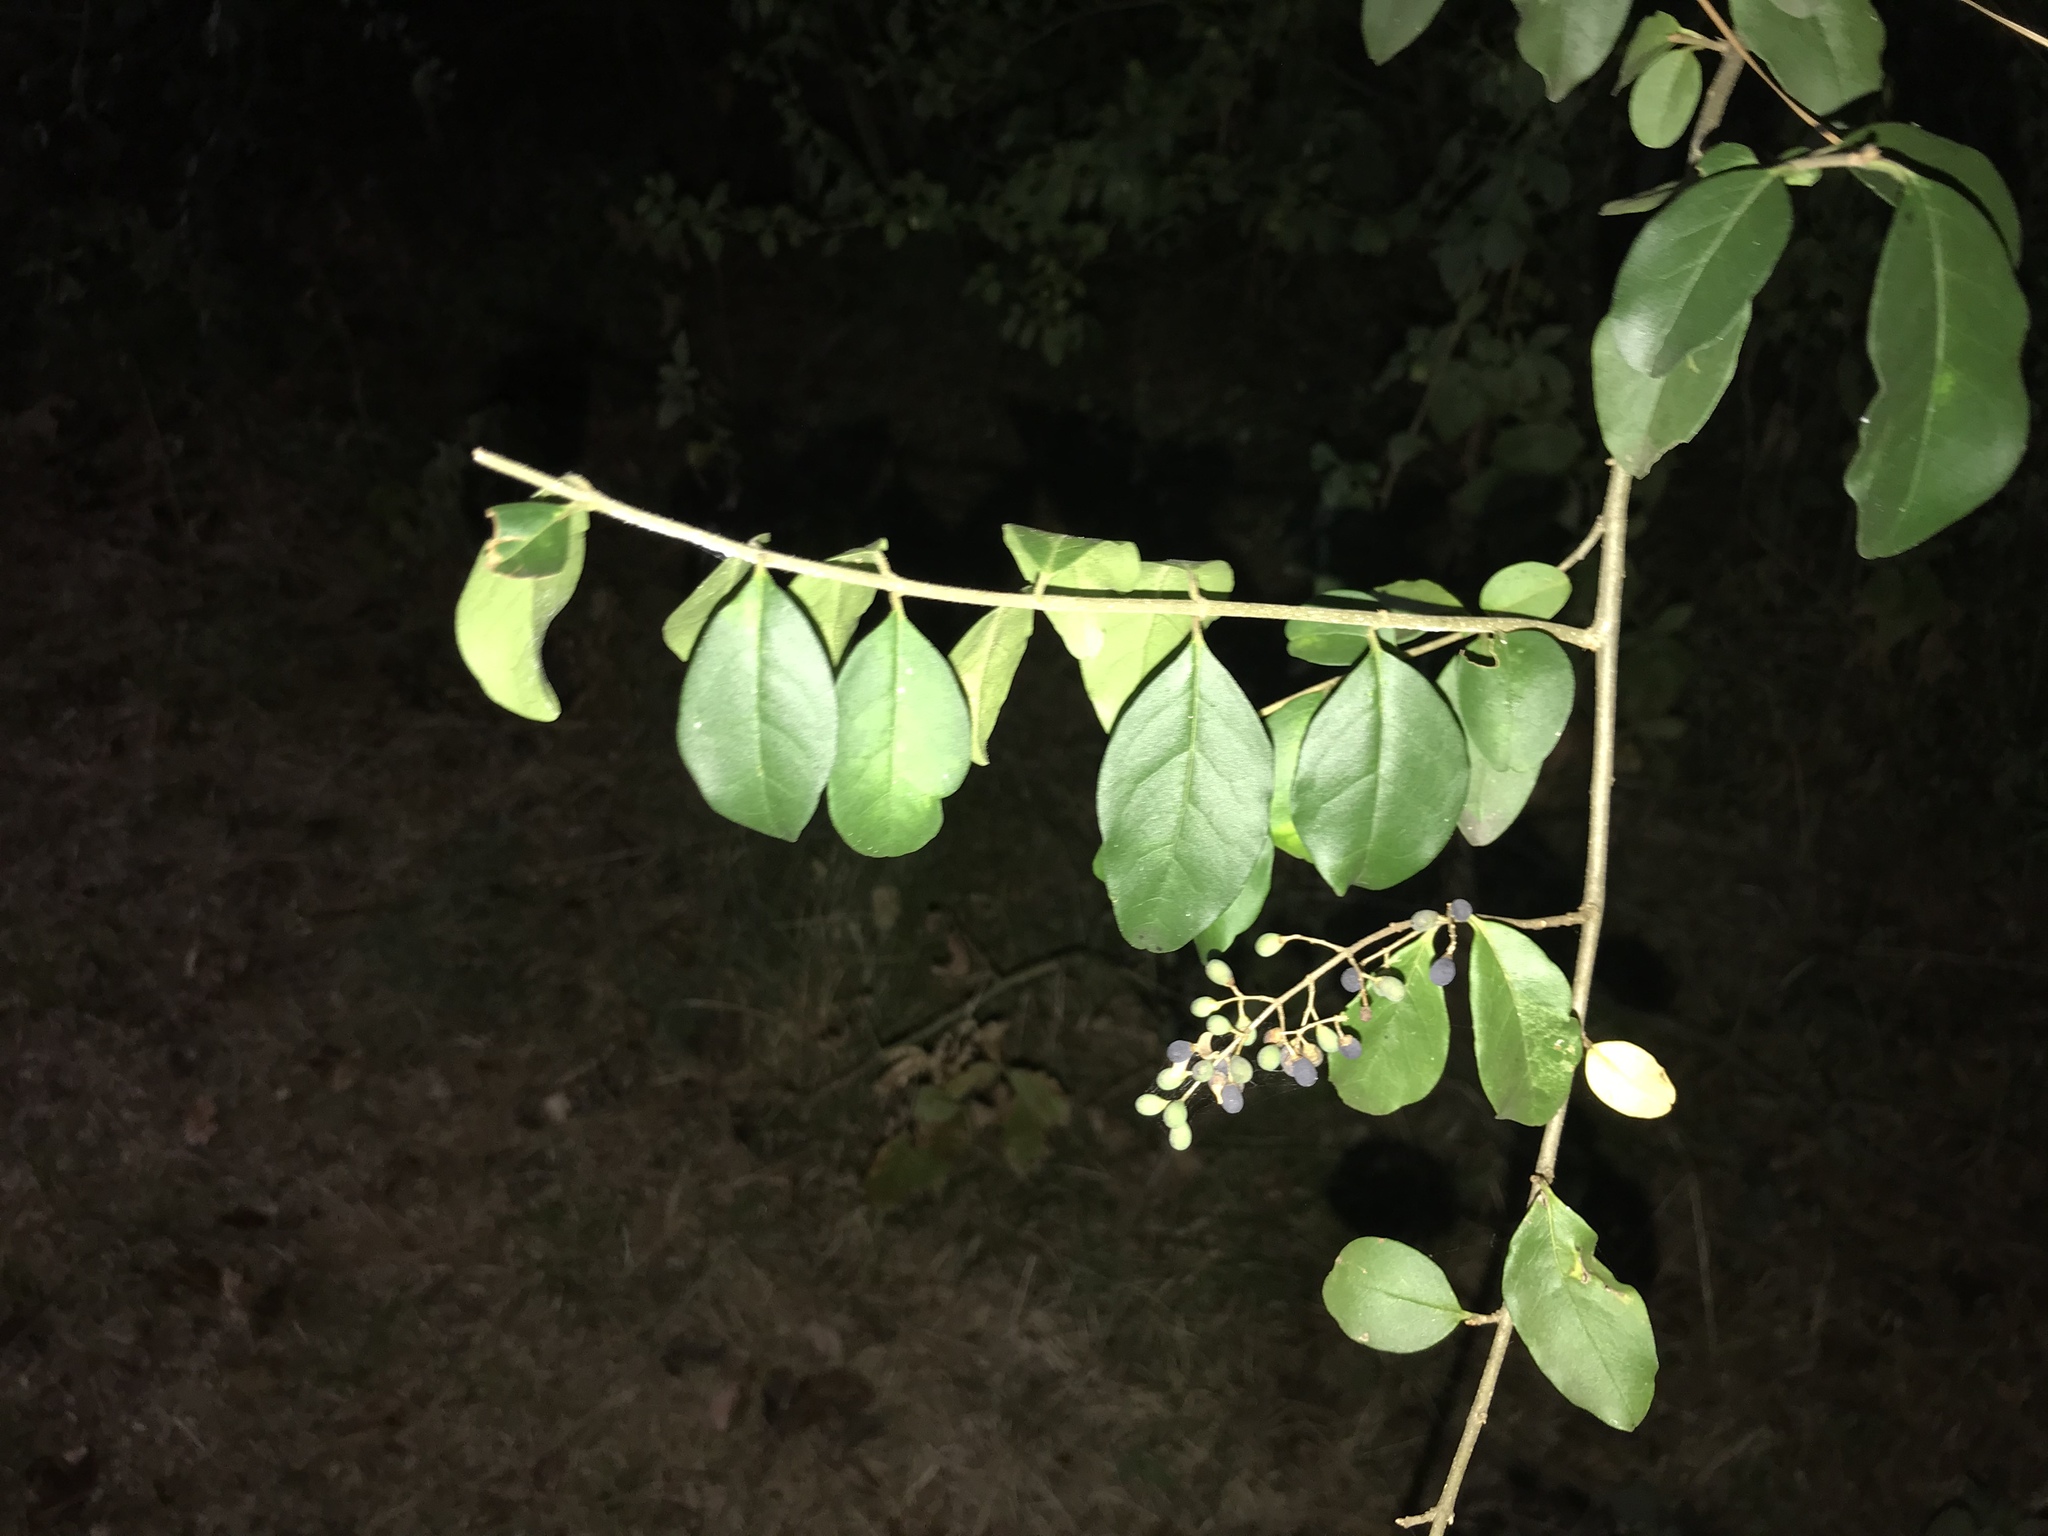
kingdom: Plantae
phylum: Tracheophyta
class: Magnoliopsida
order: Lamiales
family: Oleaceae
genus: Ligustrum
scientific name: Ligustrum sinense
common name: Chinese privet
